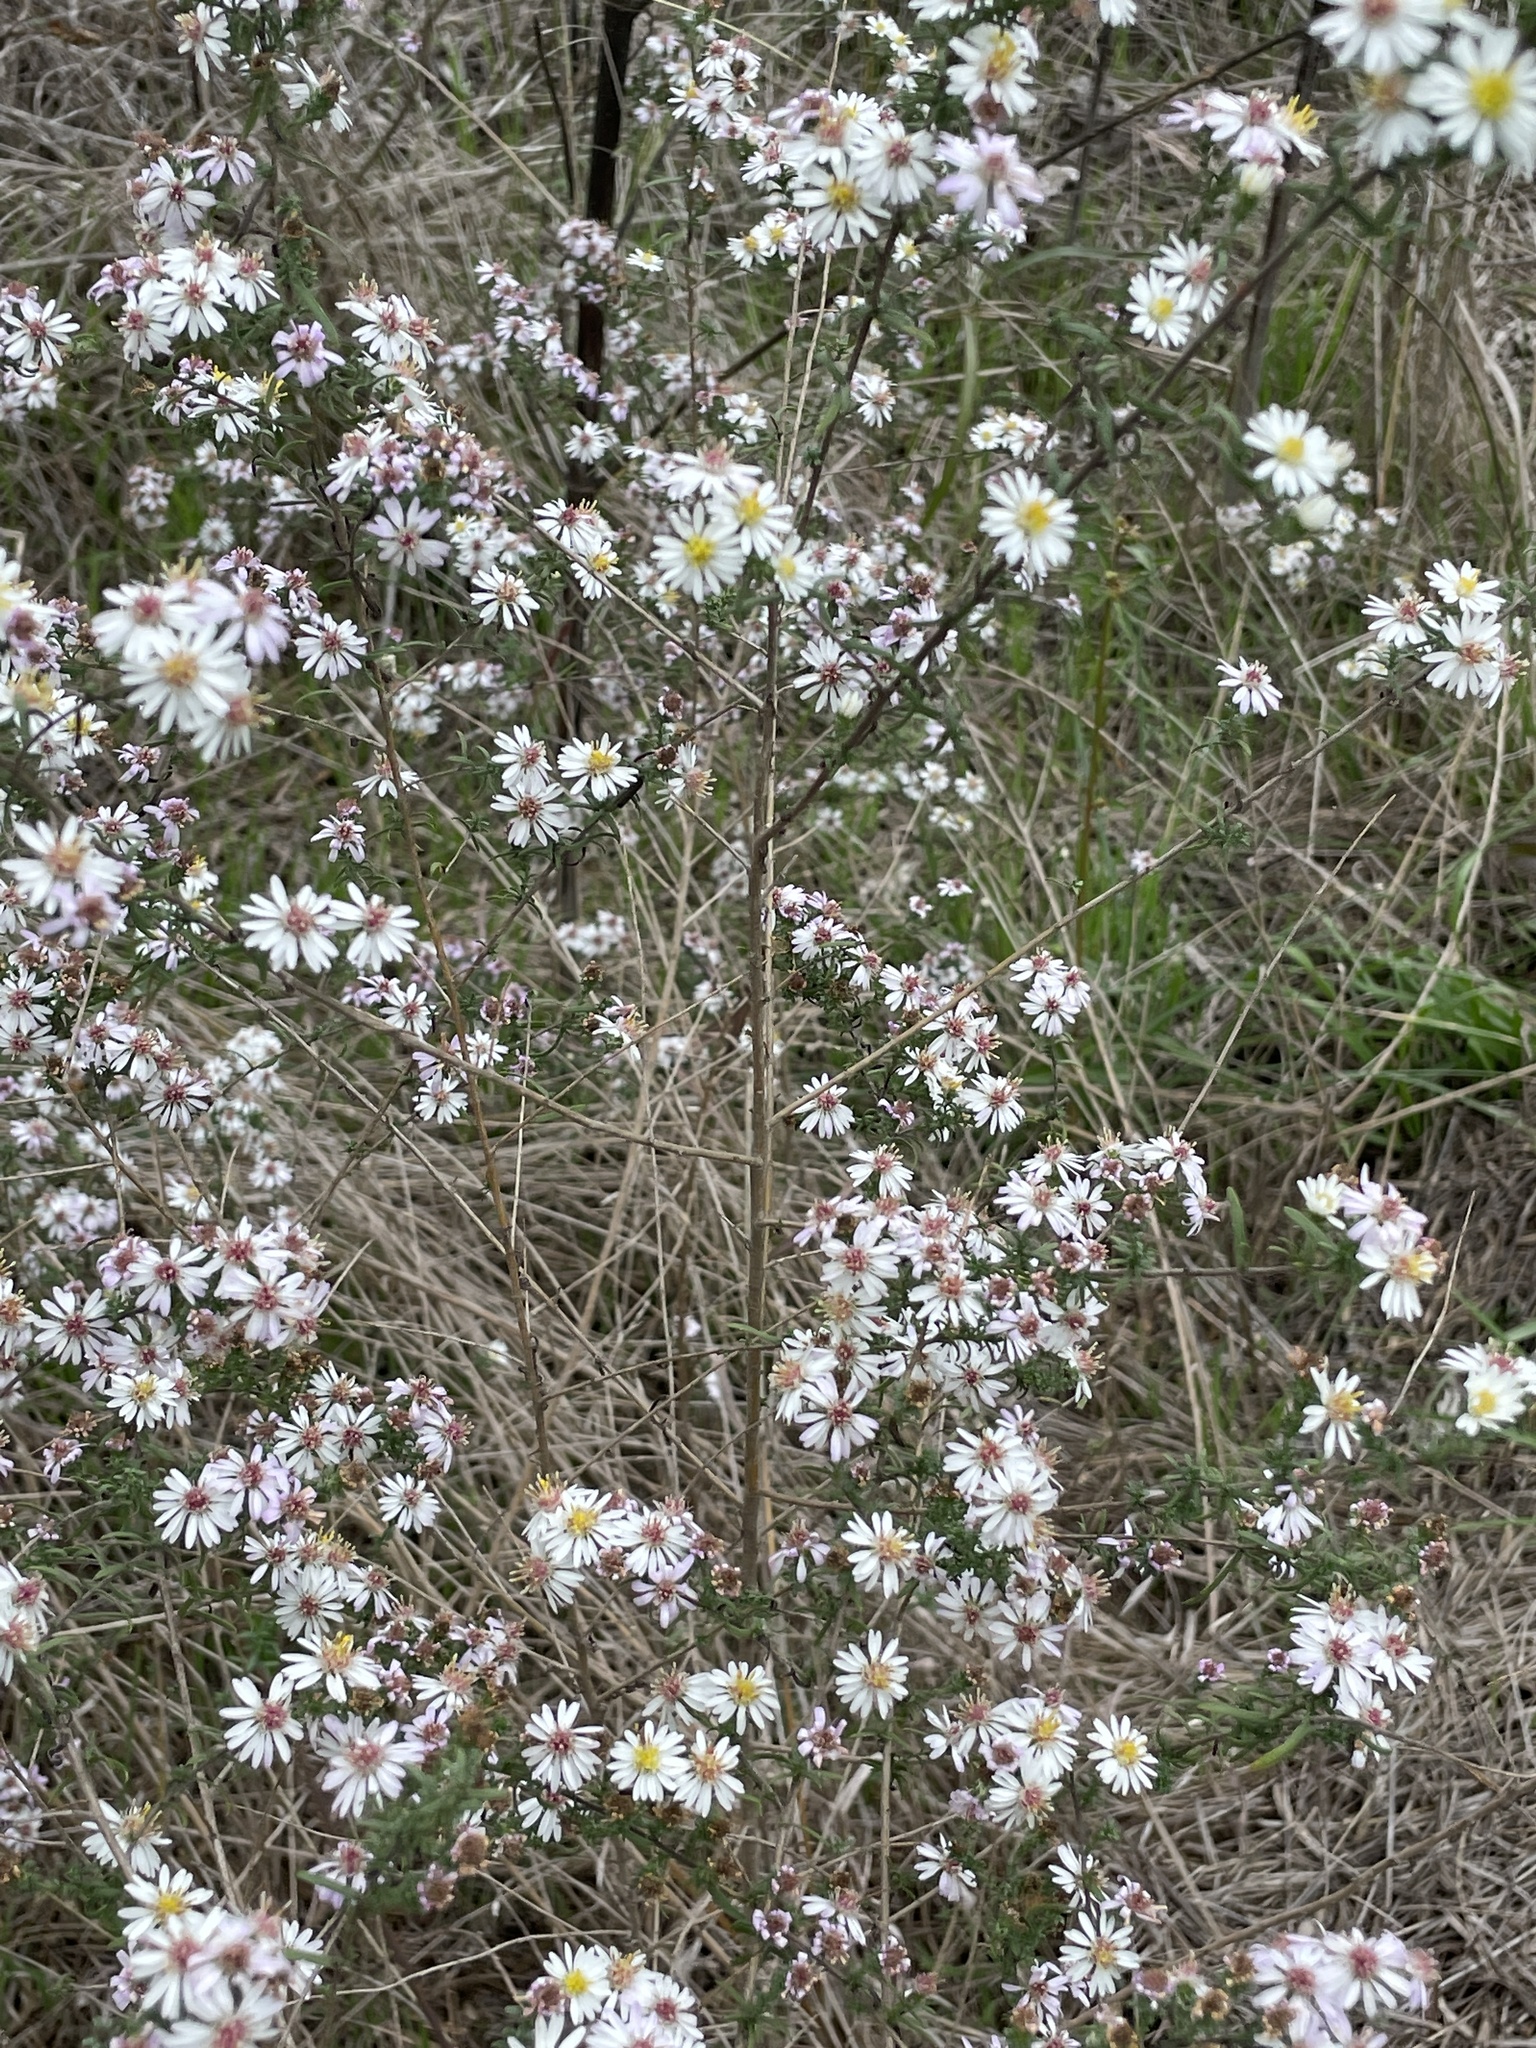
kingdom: Plantae
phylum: Tracheophyta
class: Magnoliopsida
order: Asterales
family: Asteraceae
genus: Symphyotrichum
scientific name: Symphyotrichum ericoides
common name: Heath aster
